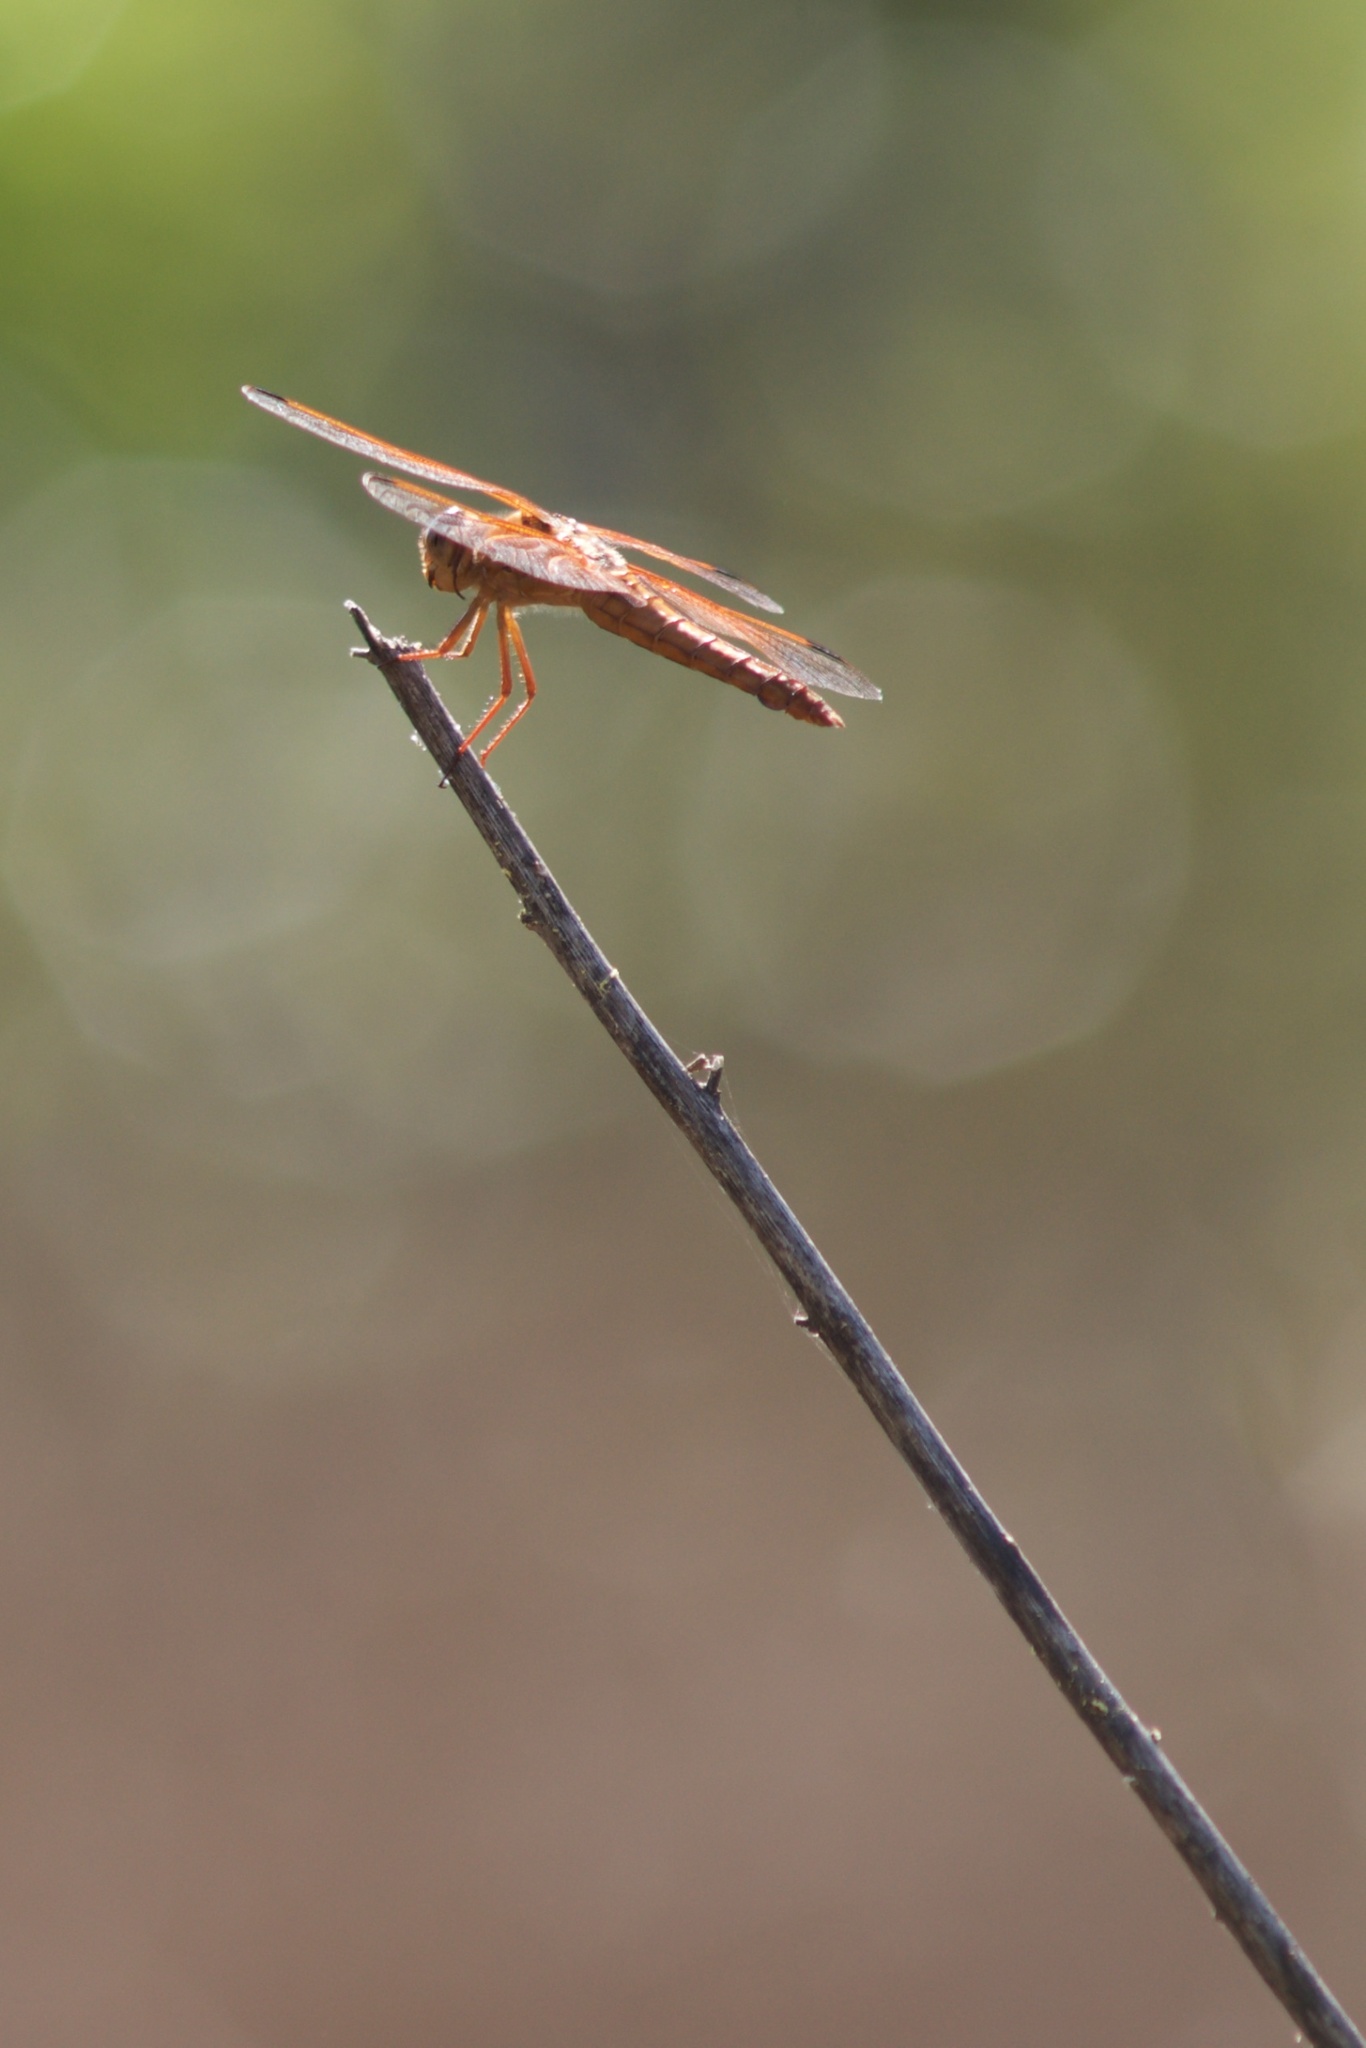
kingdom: Animalia
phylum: Arthropoda
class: Insecta
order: Odonata
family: Libellulidae
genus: Libellula
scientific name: Libellula saturata
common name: Flame skimmer
